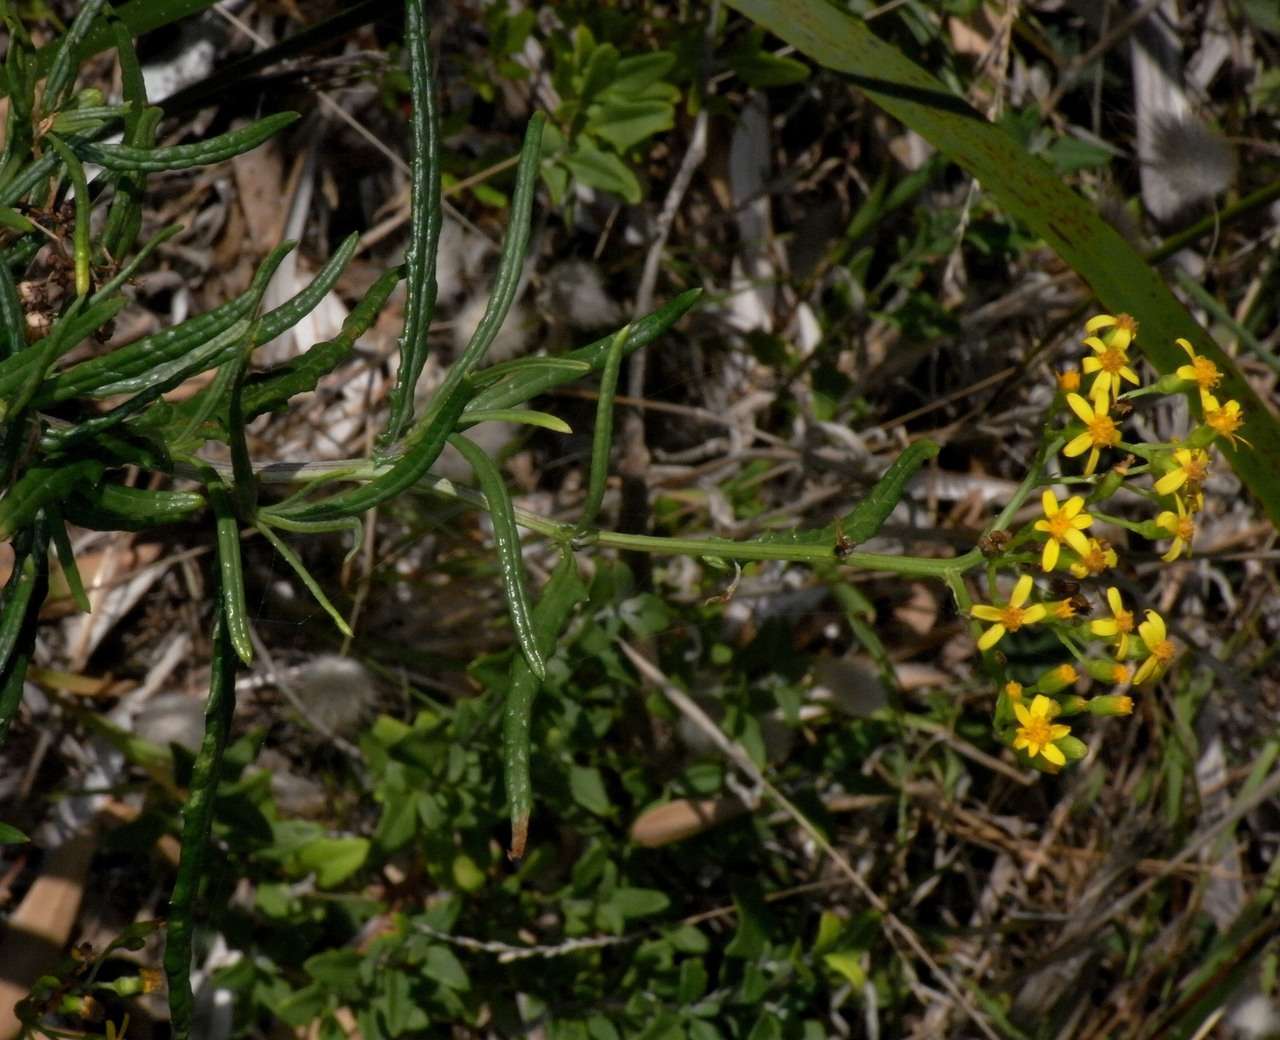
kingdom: Plantae
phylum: Tracheophyta
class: Magnoliopsida
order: Asterales
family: Asteraceae
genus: Senecio
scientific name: Senecio linearifolius
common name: Fireweed groundsel
